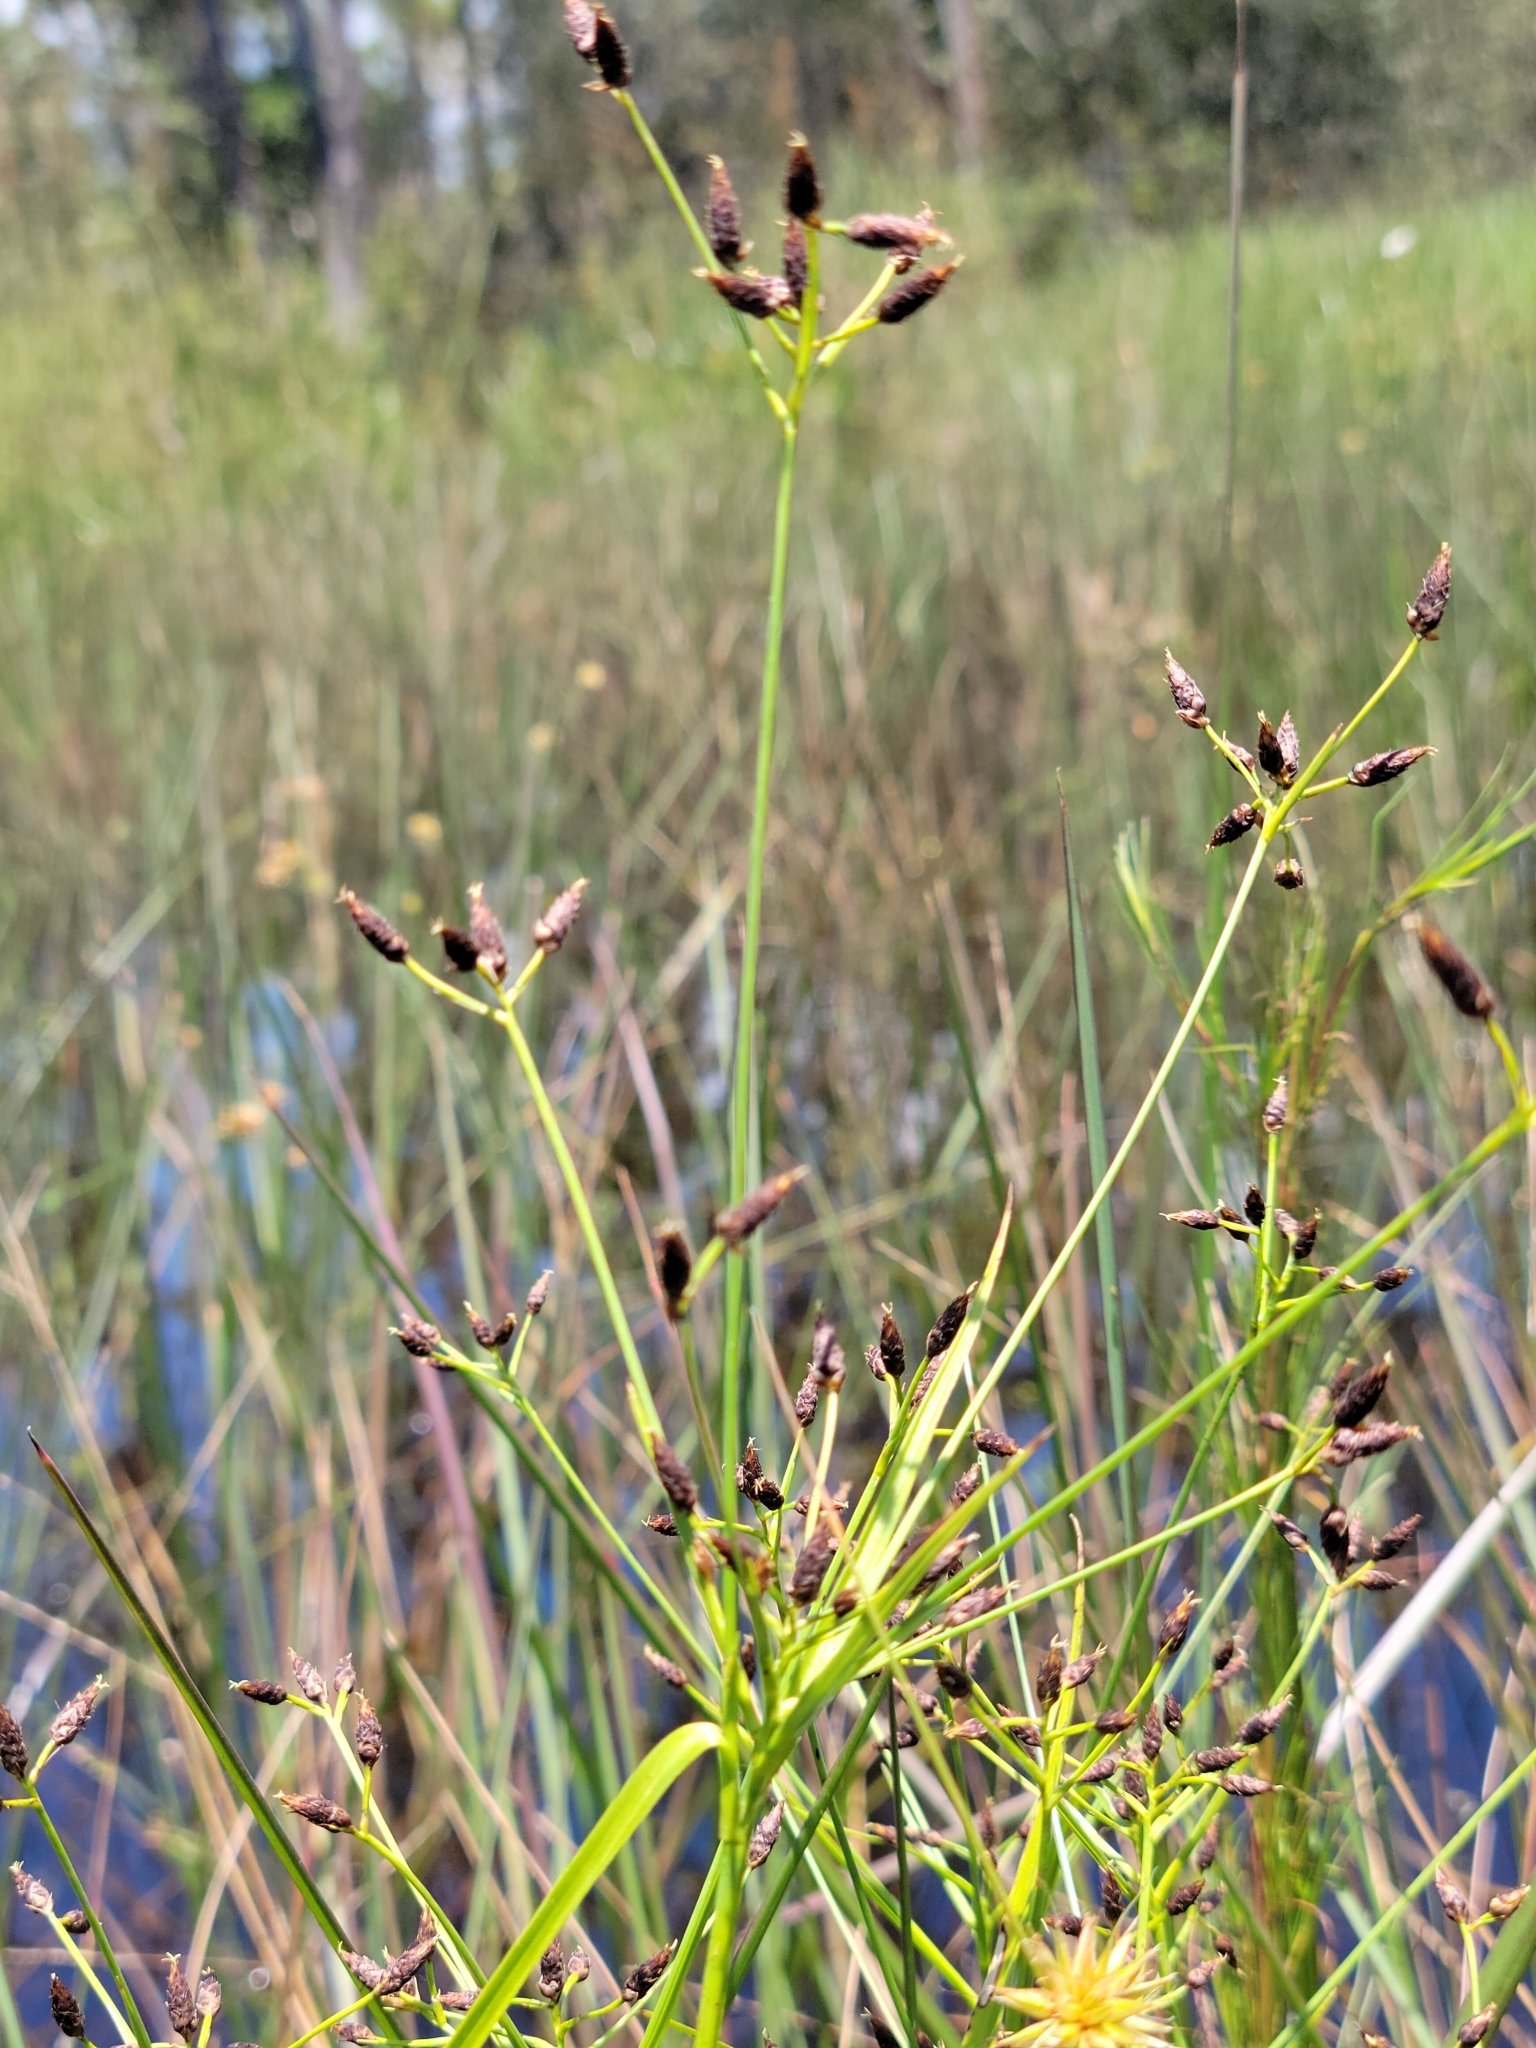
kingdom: Plantae
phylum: Tracheophyta
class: Liliopsida
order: Poales
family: Cyperaceae
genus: Rhynchospora
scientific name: Rhynchospora nitens
